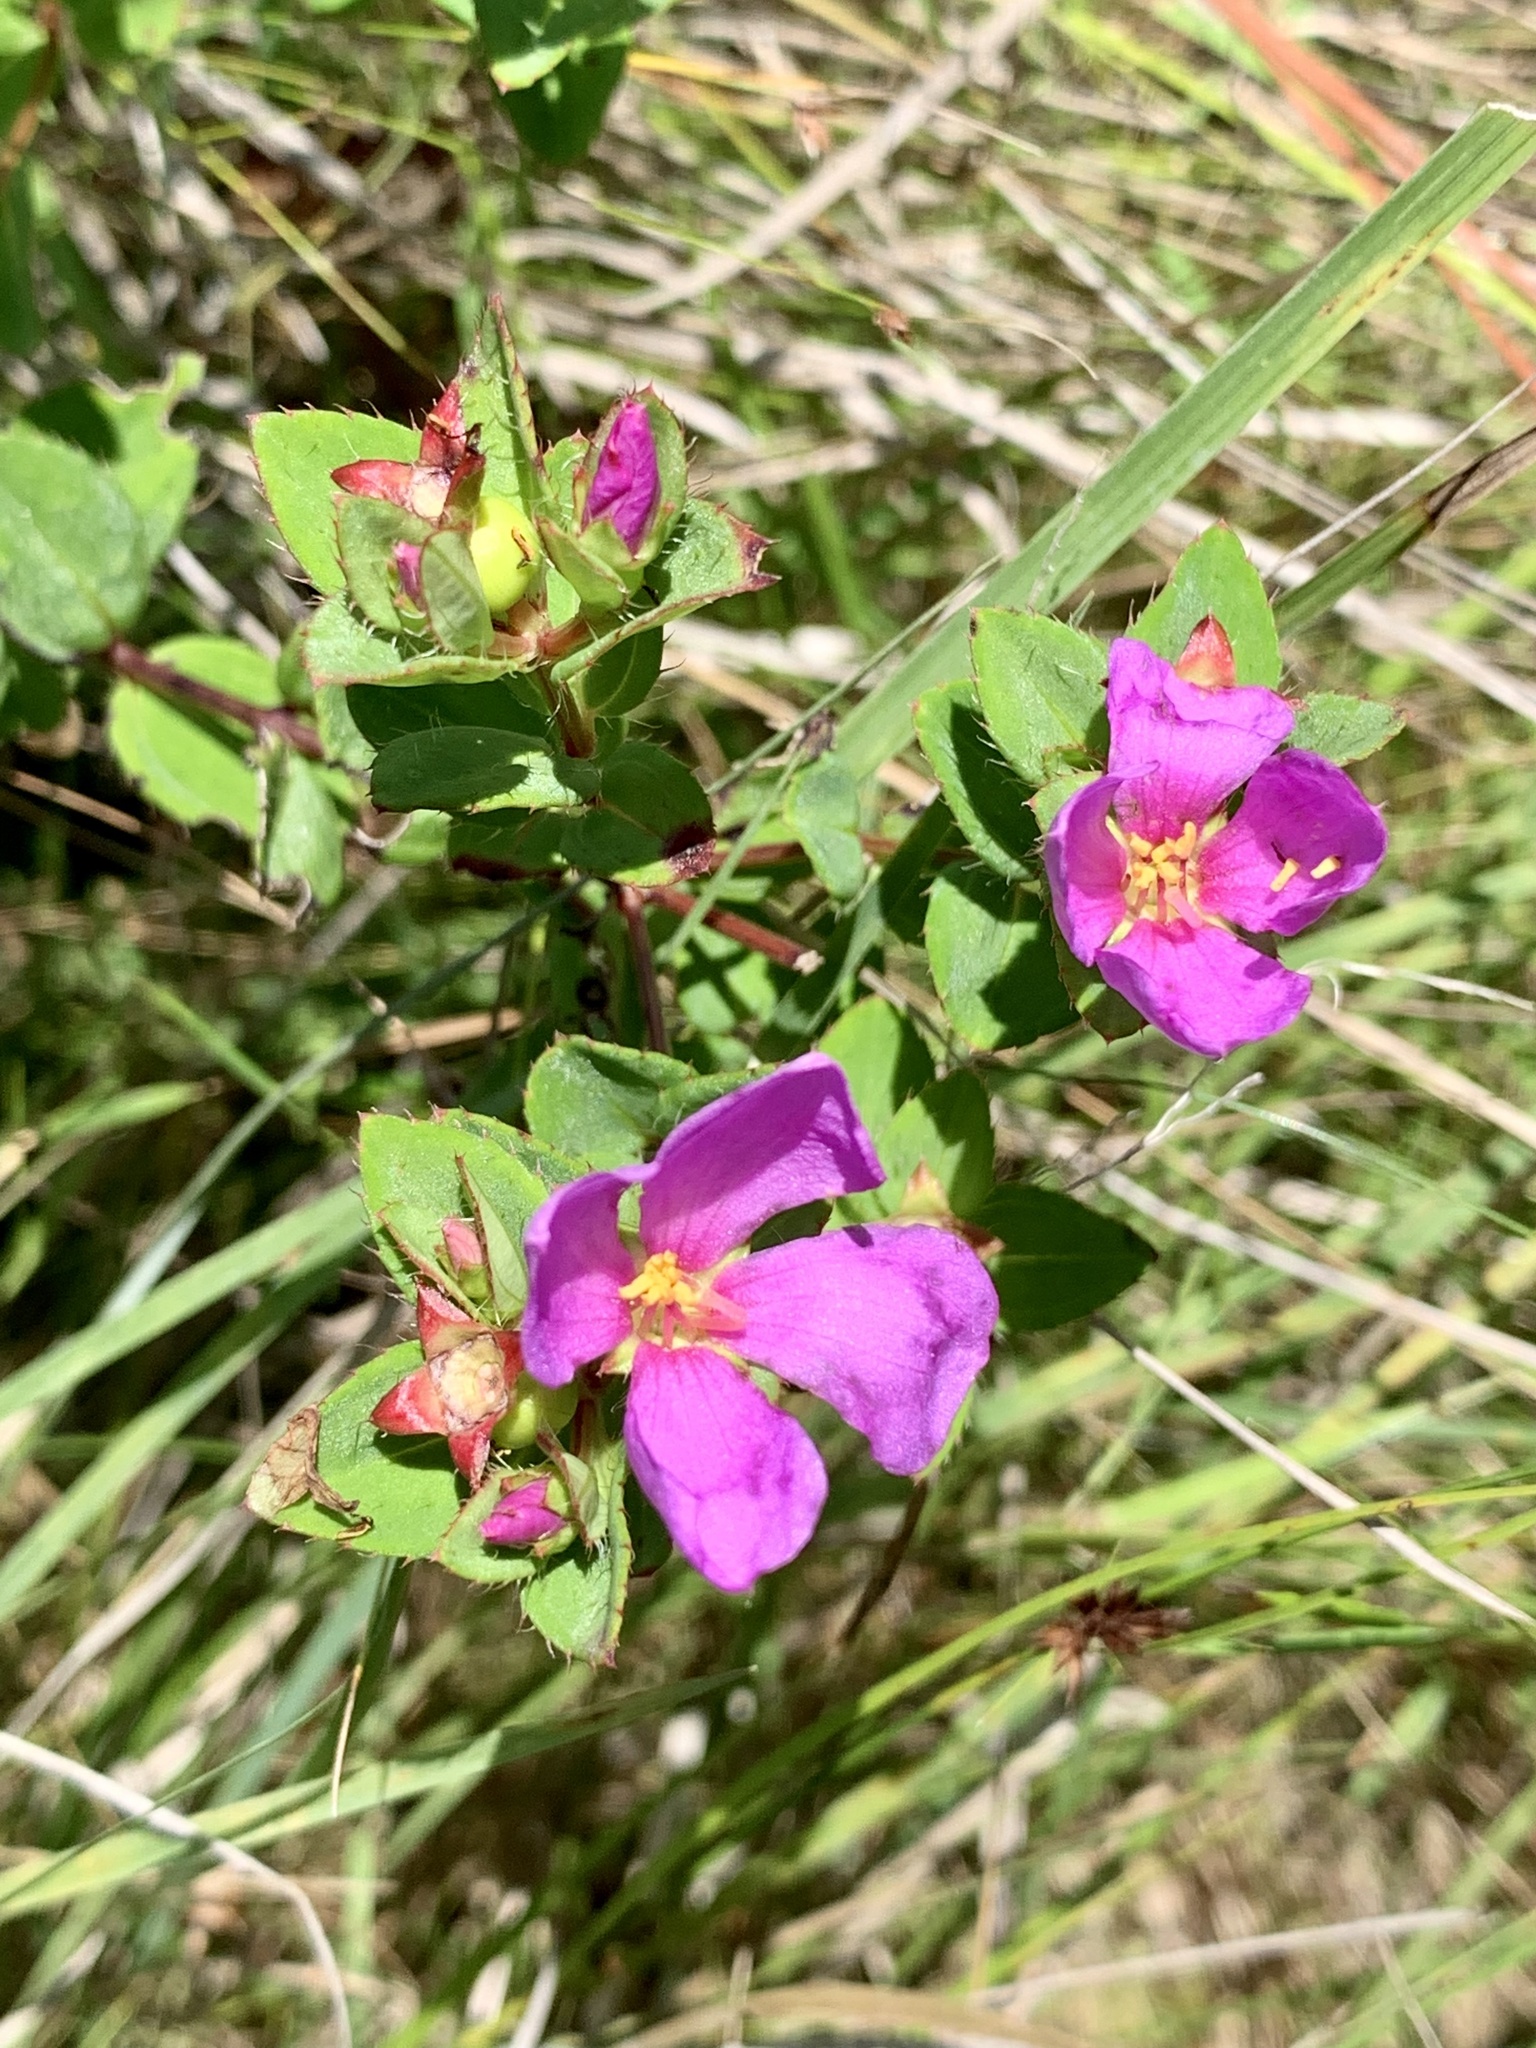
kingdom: Plantae
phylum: Tracheophyta
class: Magnoliopsida
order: Myrtales
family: Melastomataceae
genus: Rhexia
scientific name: Rhexia petiolata
